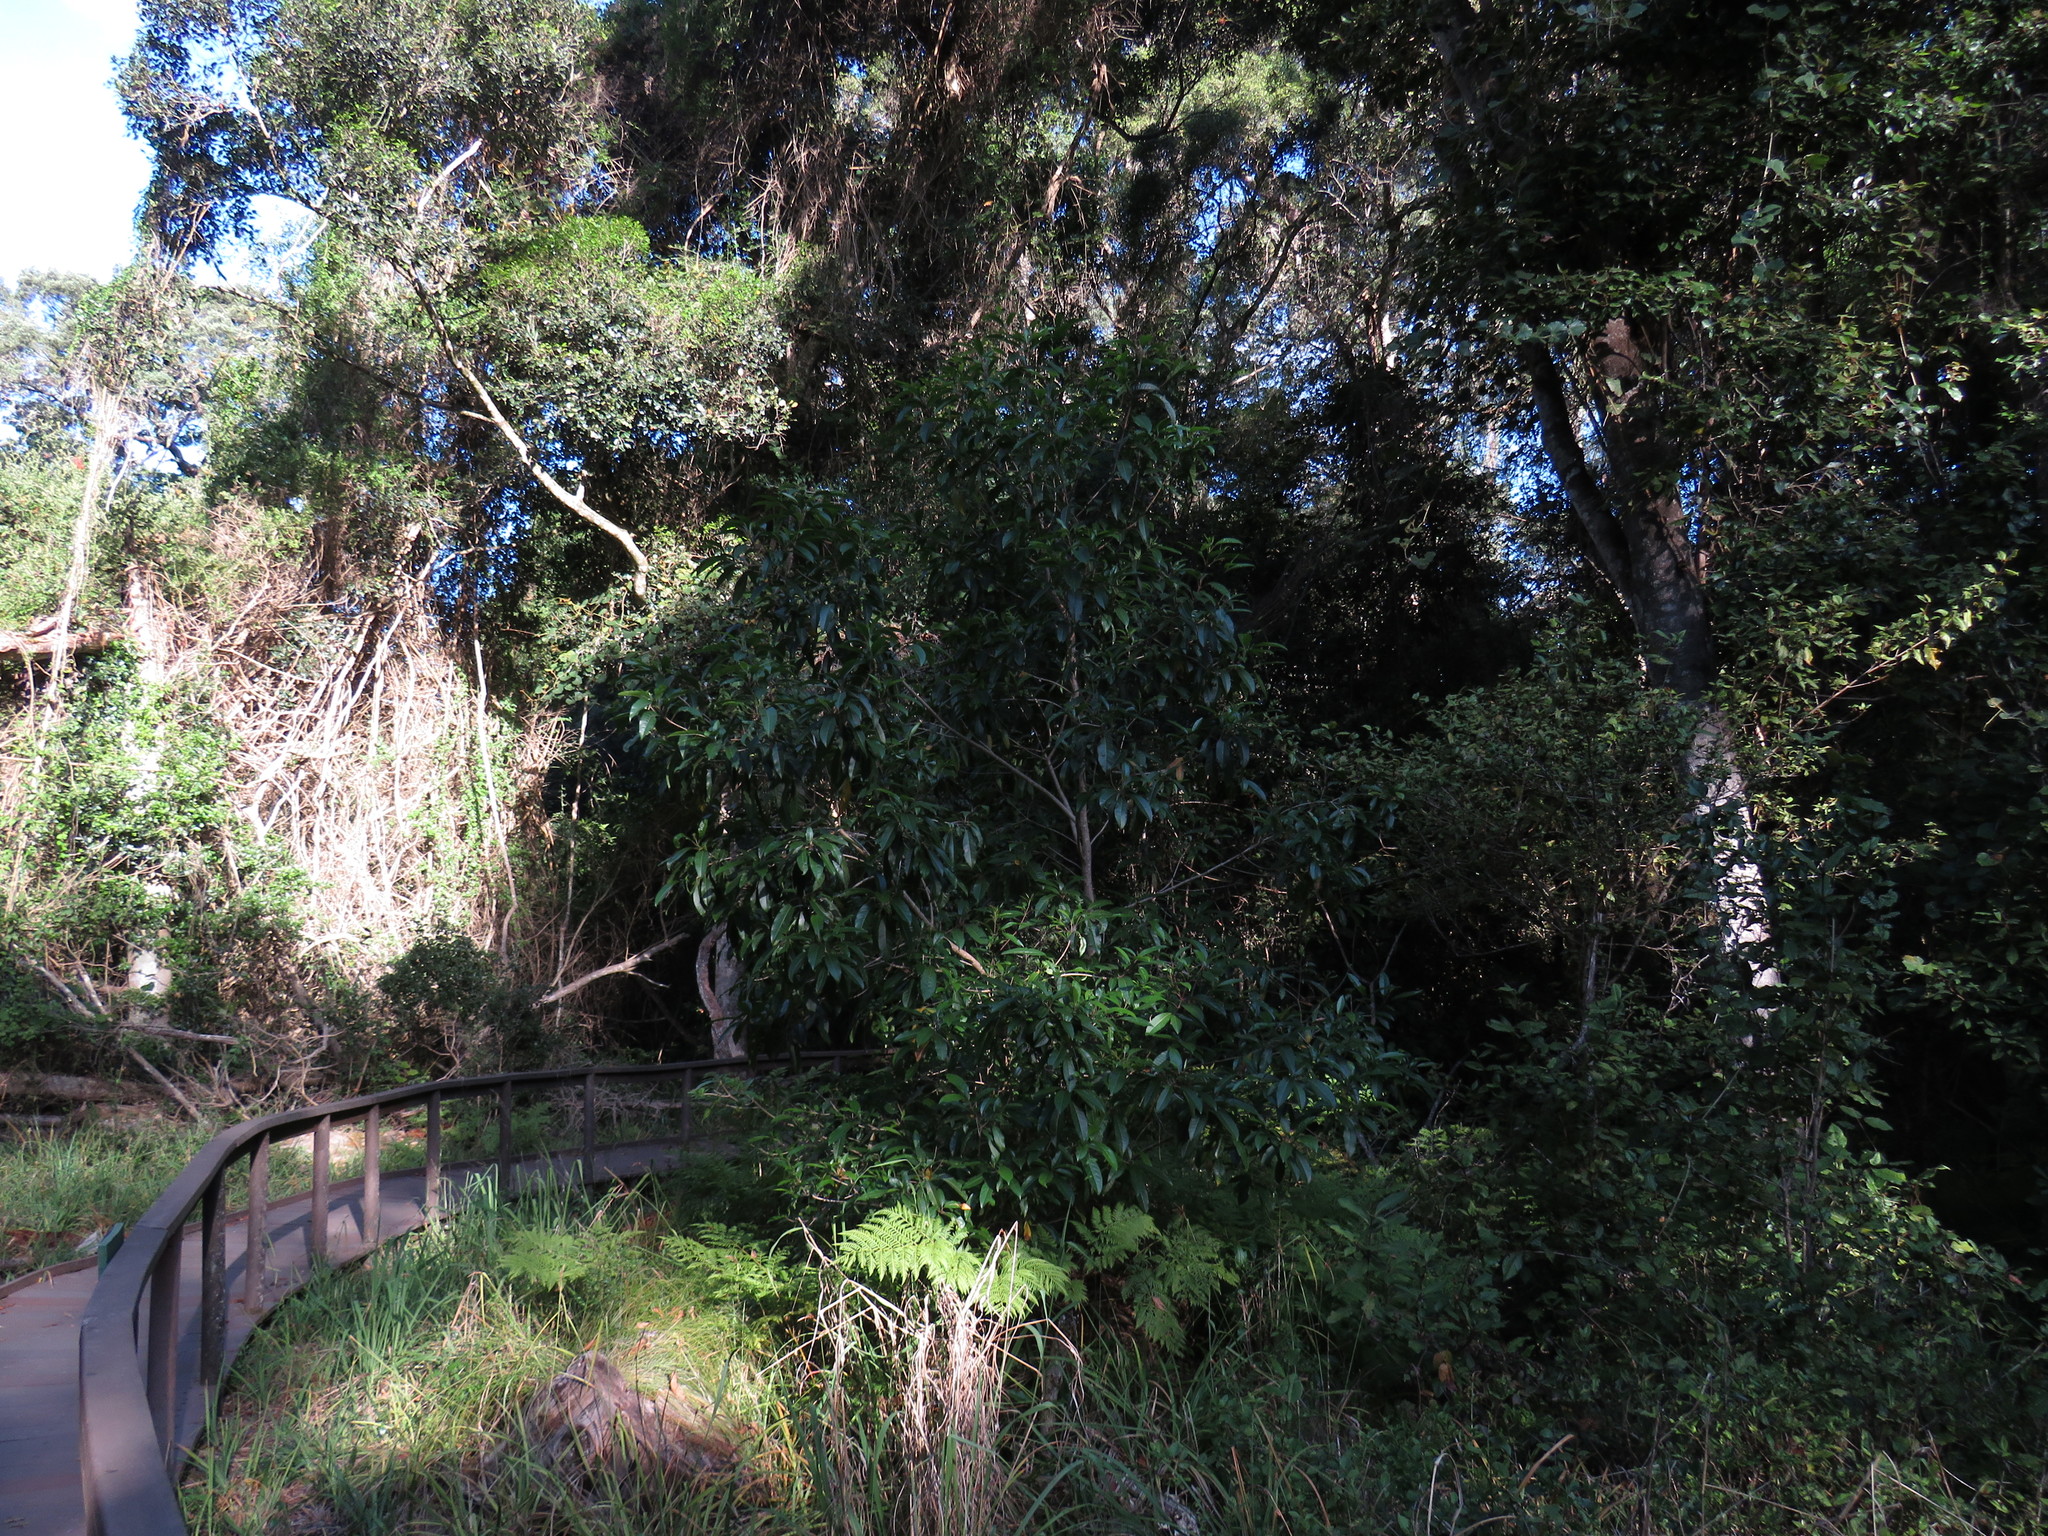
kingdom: Plantae
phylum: Tracheophyta
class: Magnoliopsida
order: Lamiales
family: Stilbaceae
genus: Nuxia
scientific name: Nuxia floribunda
